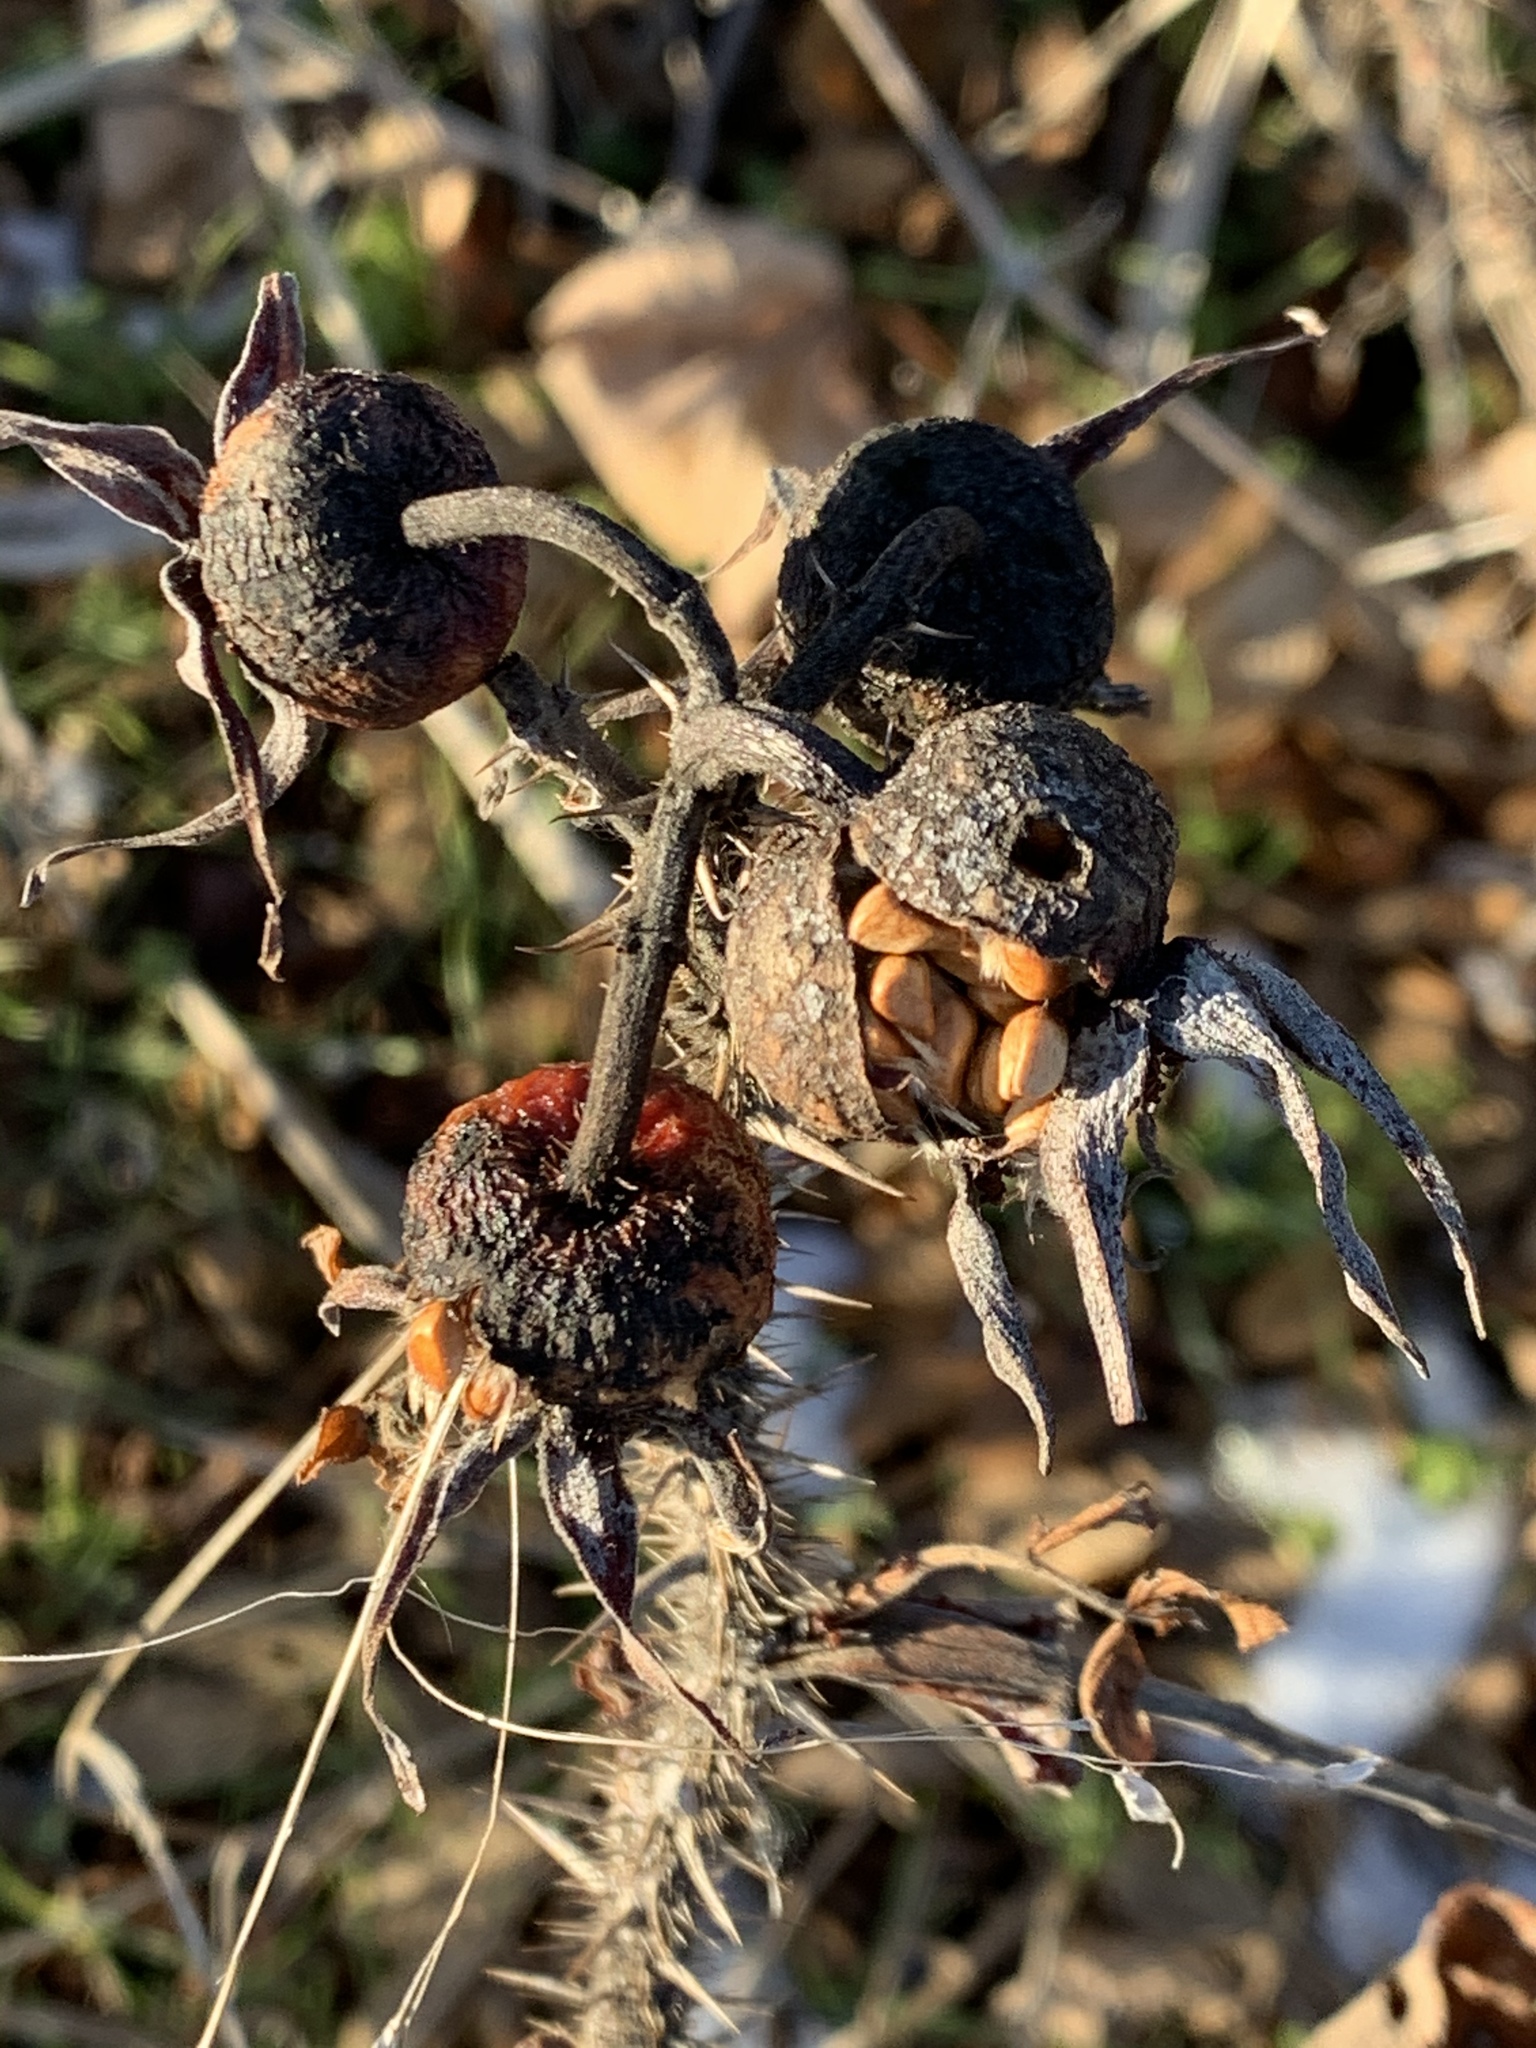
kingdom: Plantae
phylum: Tracheophyta
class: Magnoliopsida
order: Rosales
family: Rosaceae
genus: Rosa
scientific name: Rosa rugosa
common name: Japanese rose
